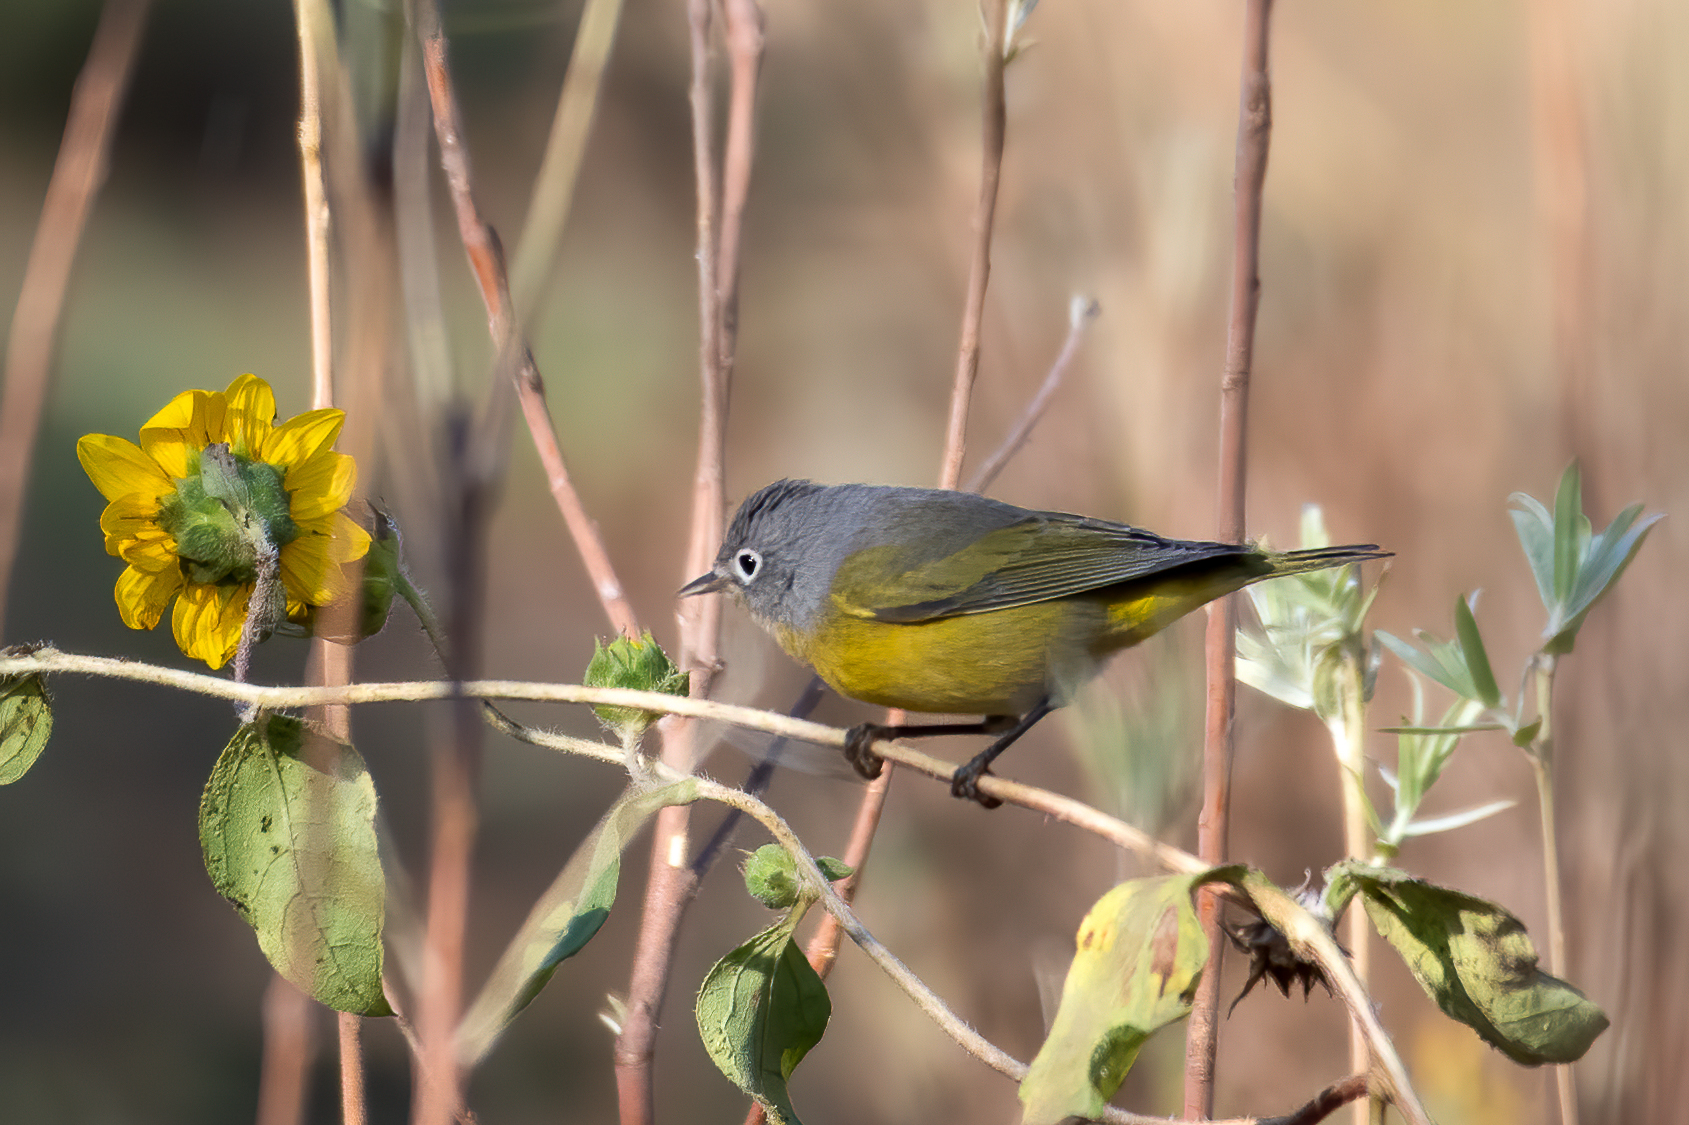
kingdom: Animalia
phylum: Chordata
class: Aves
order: Passeriformes
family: Parulidae
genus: Leiothlypis
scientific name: Leiothlypis ruficapilla
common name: Nashville warbler
